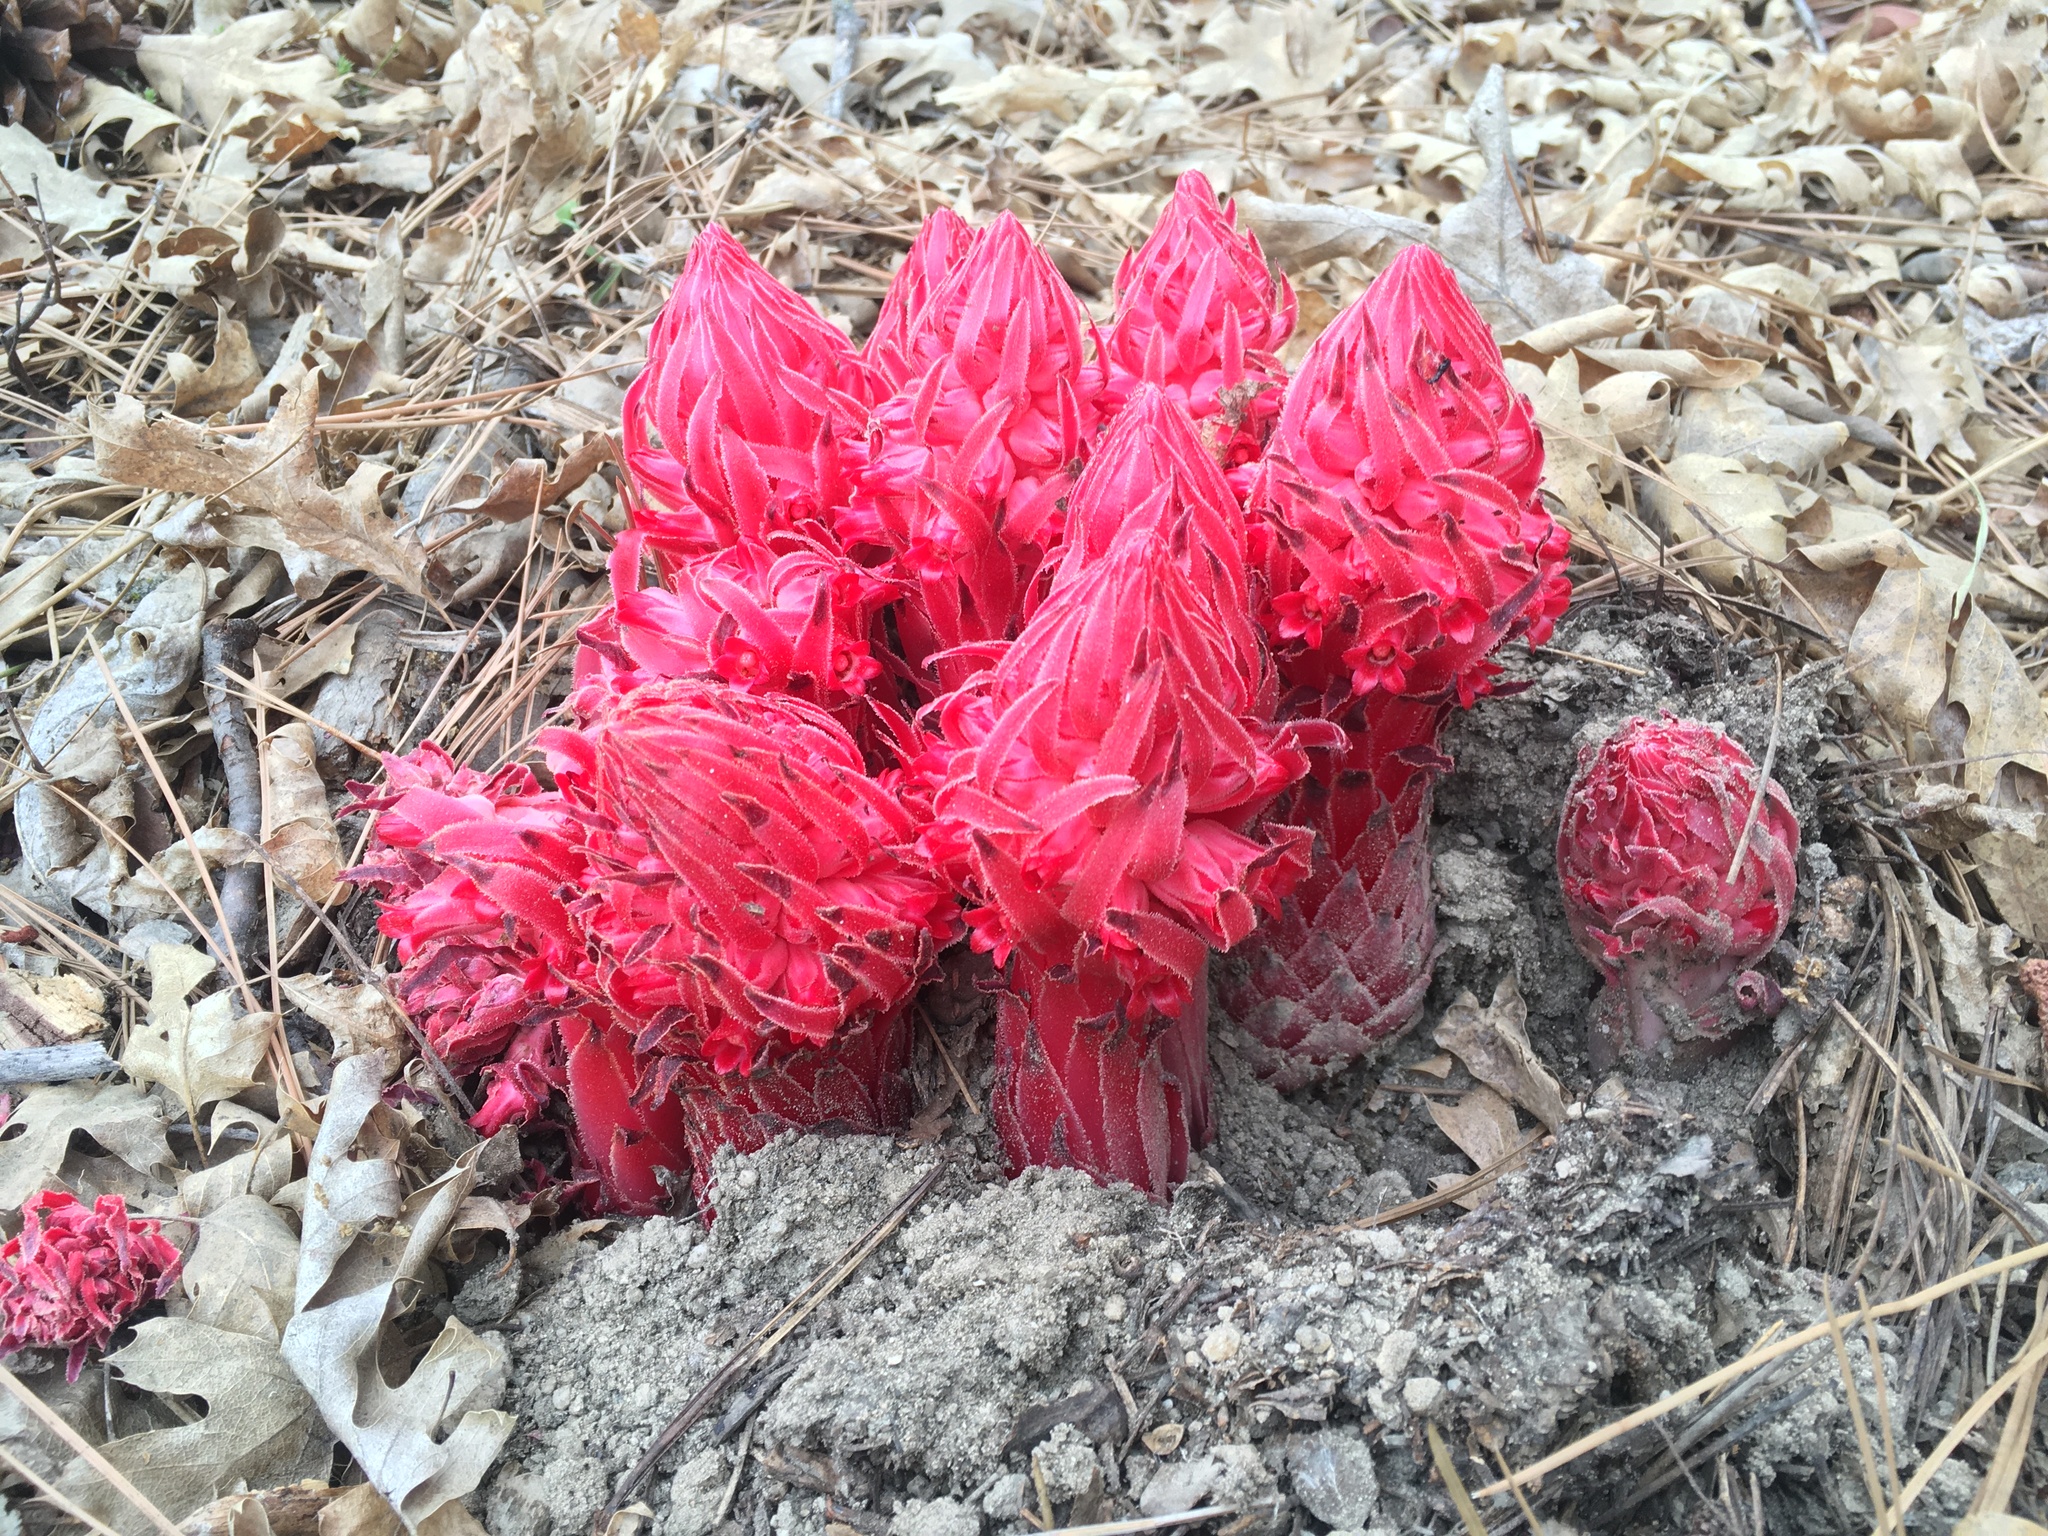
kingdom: Plantae
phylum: Tracheophyta
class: Magnoliopsida
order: Ericales
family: Ericaceae
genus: Sarcodes
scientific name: Sarcodes sanguinea
